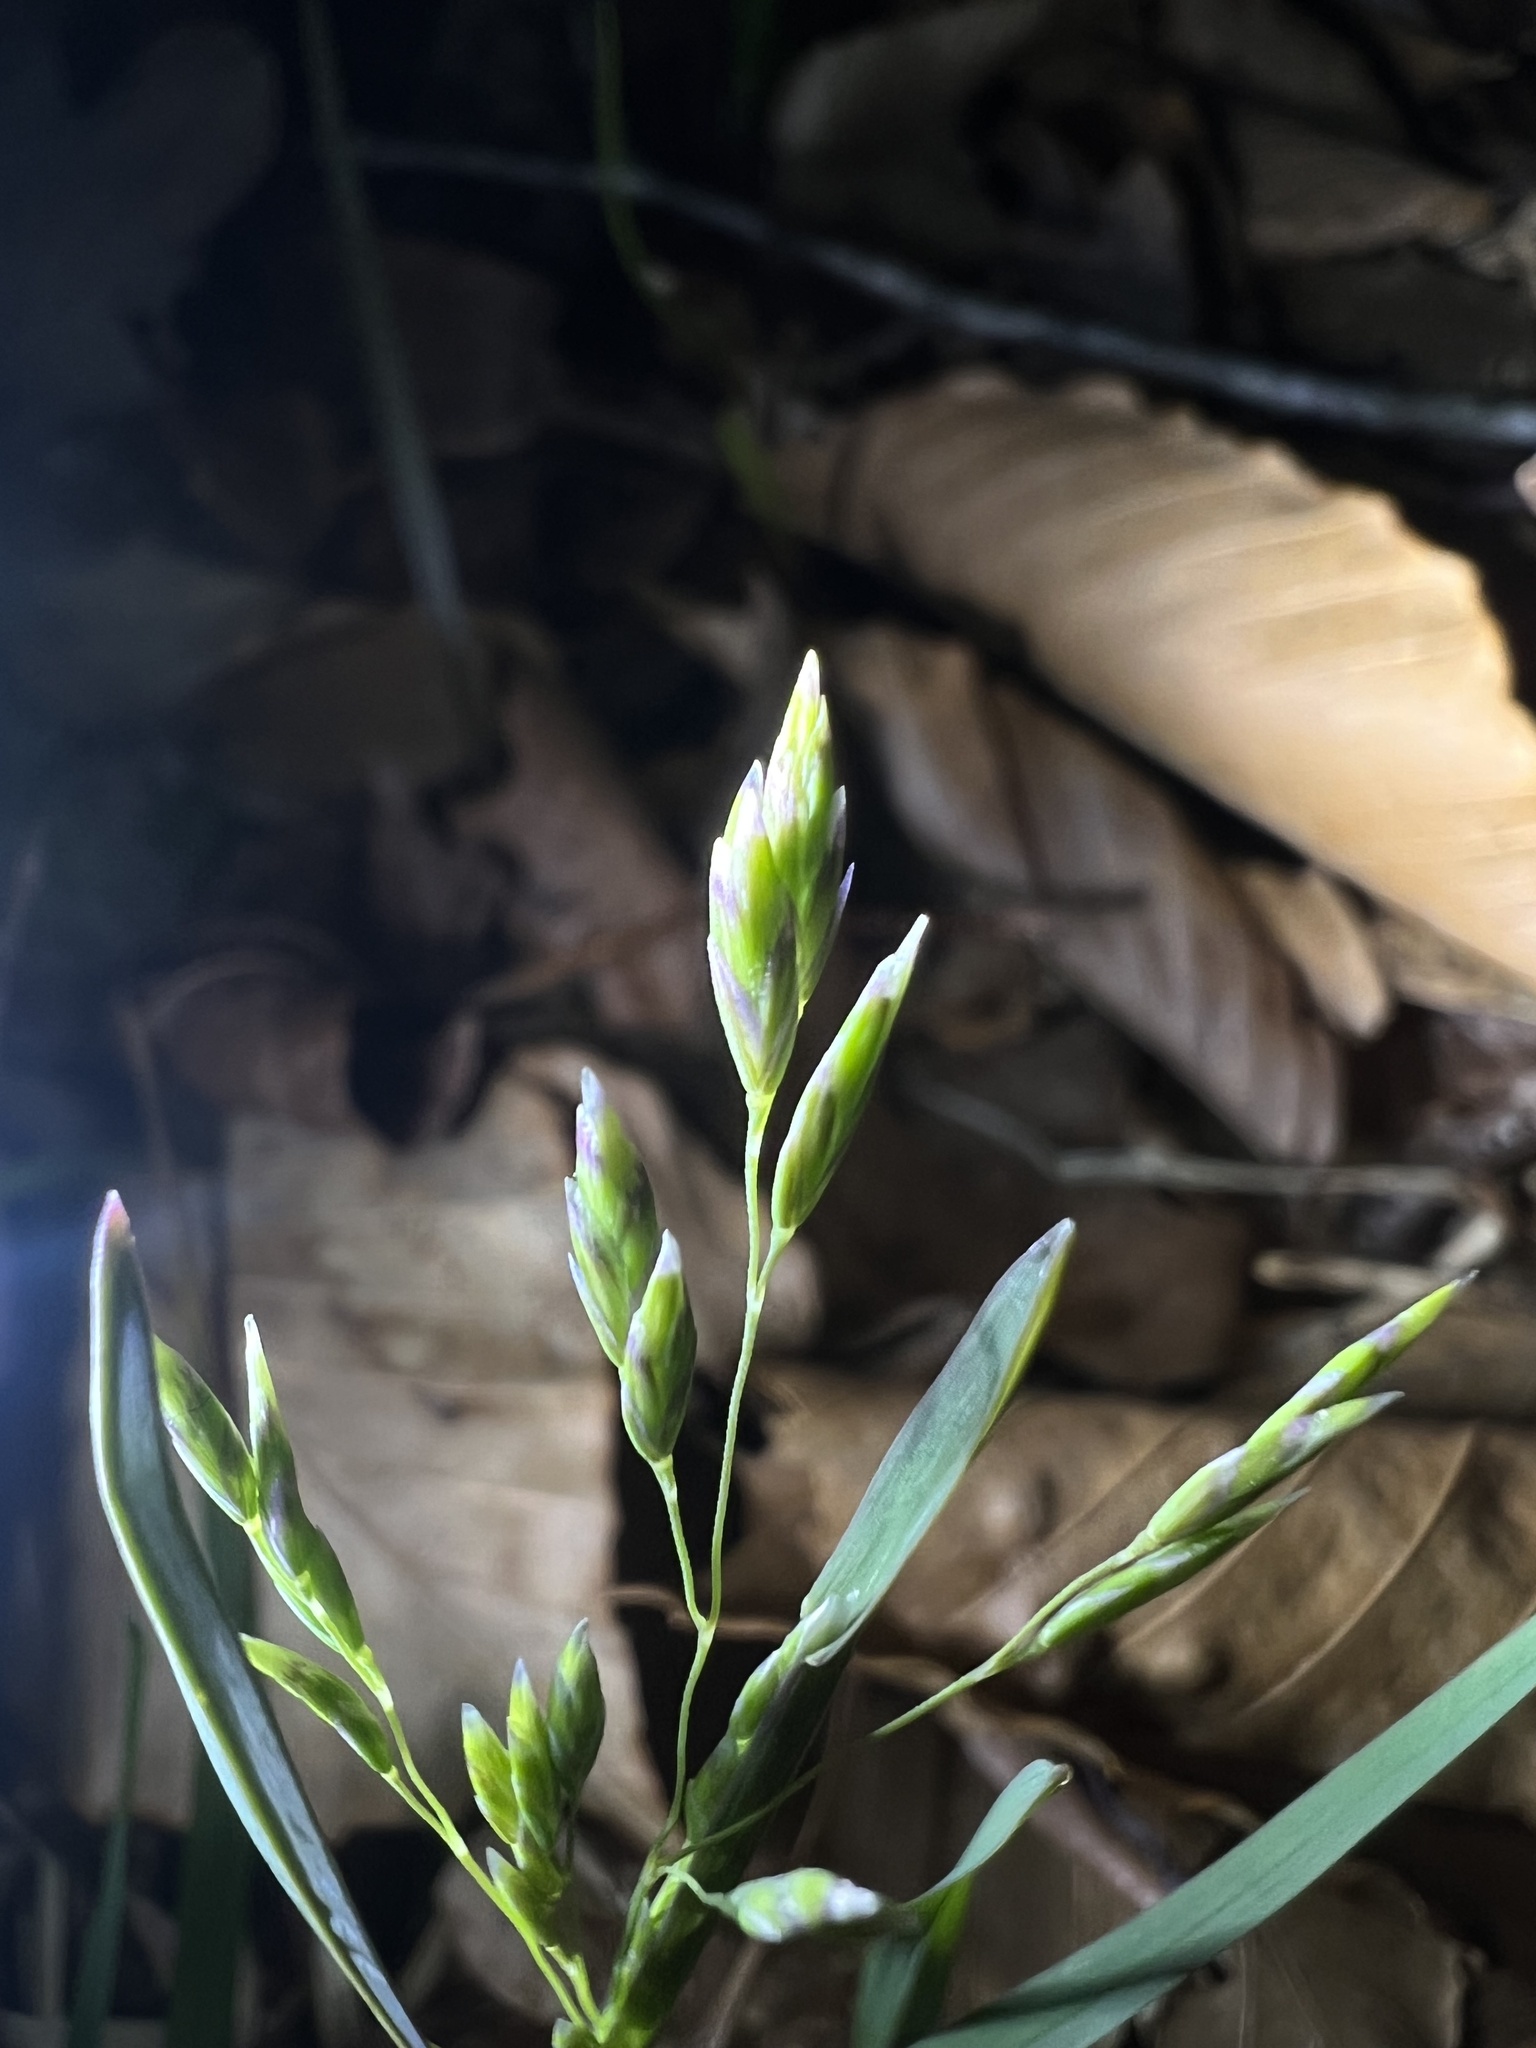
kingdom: Plantae
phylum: Tracheophyta
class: Liliopsida
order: Poales
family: Poaceae
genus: Poa
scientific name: Poa annua
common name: Annual bluegrass
